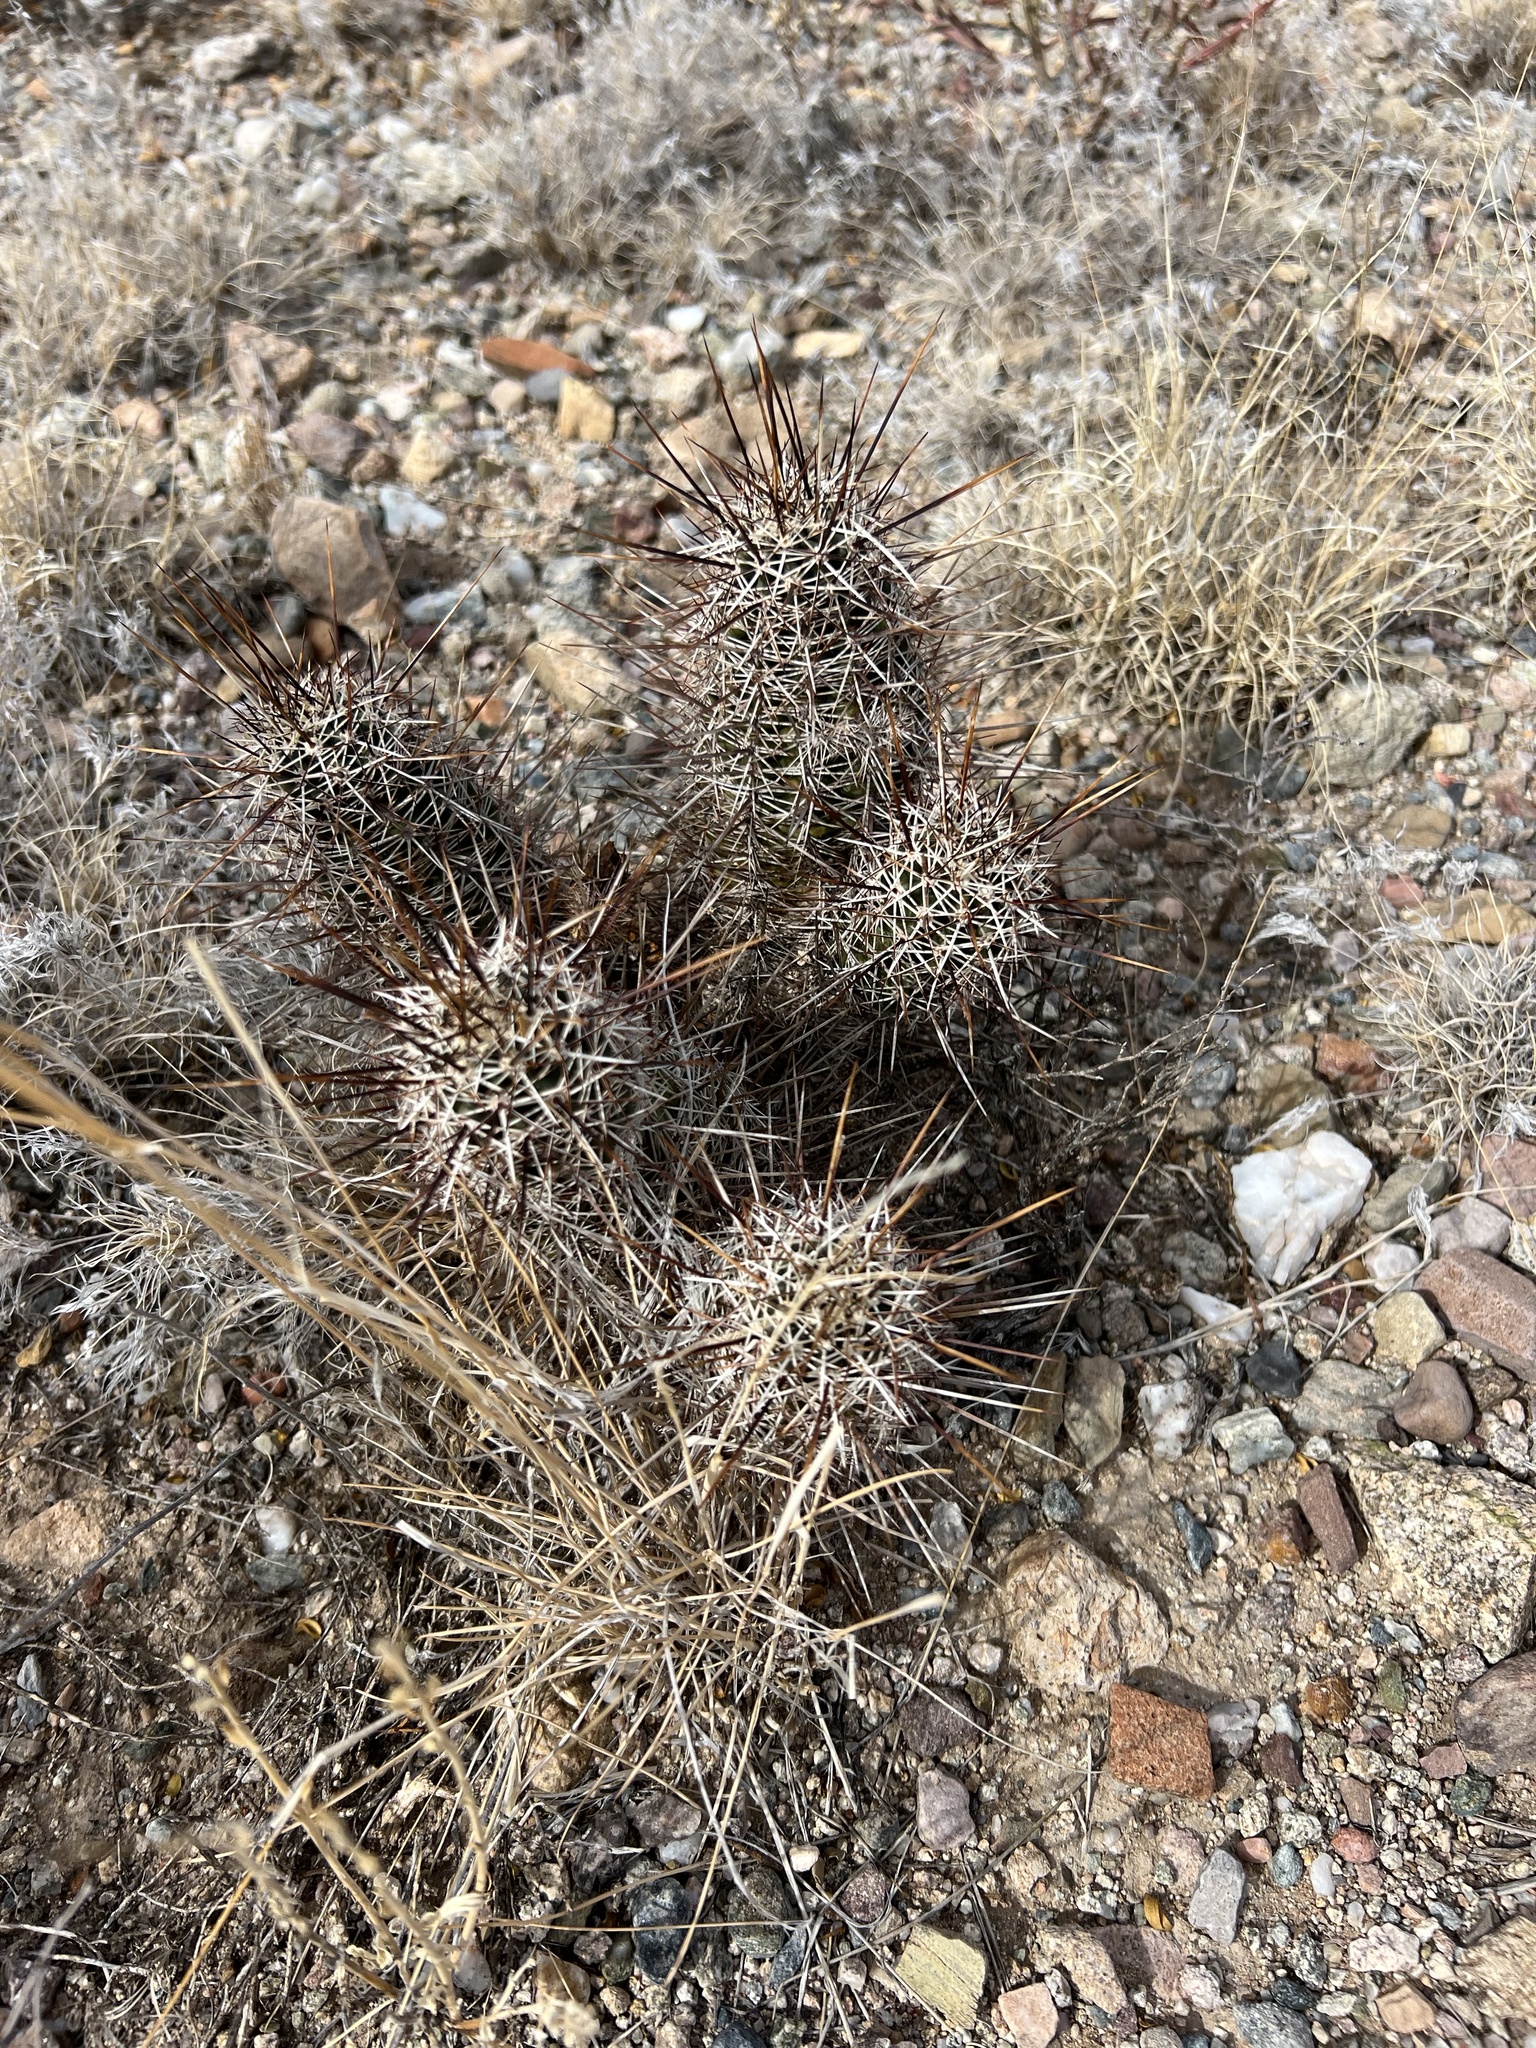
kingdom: Plantae
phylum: Tracheophyta
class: Magnoliopsida
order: Caryophyllales
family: Cactaceae
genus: Echinocereus
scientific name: Echinocereus fasciculatus
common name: Bundle hedgehog
